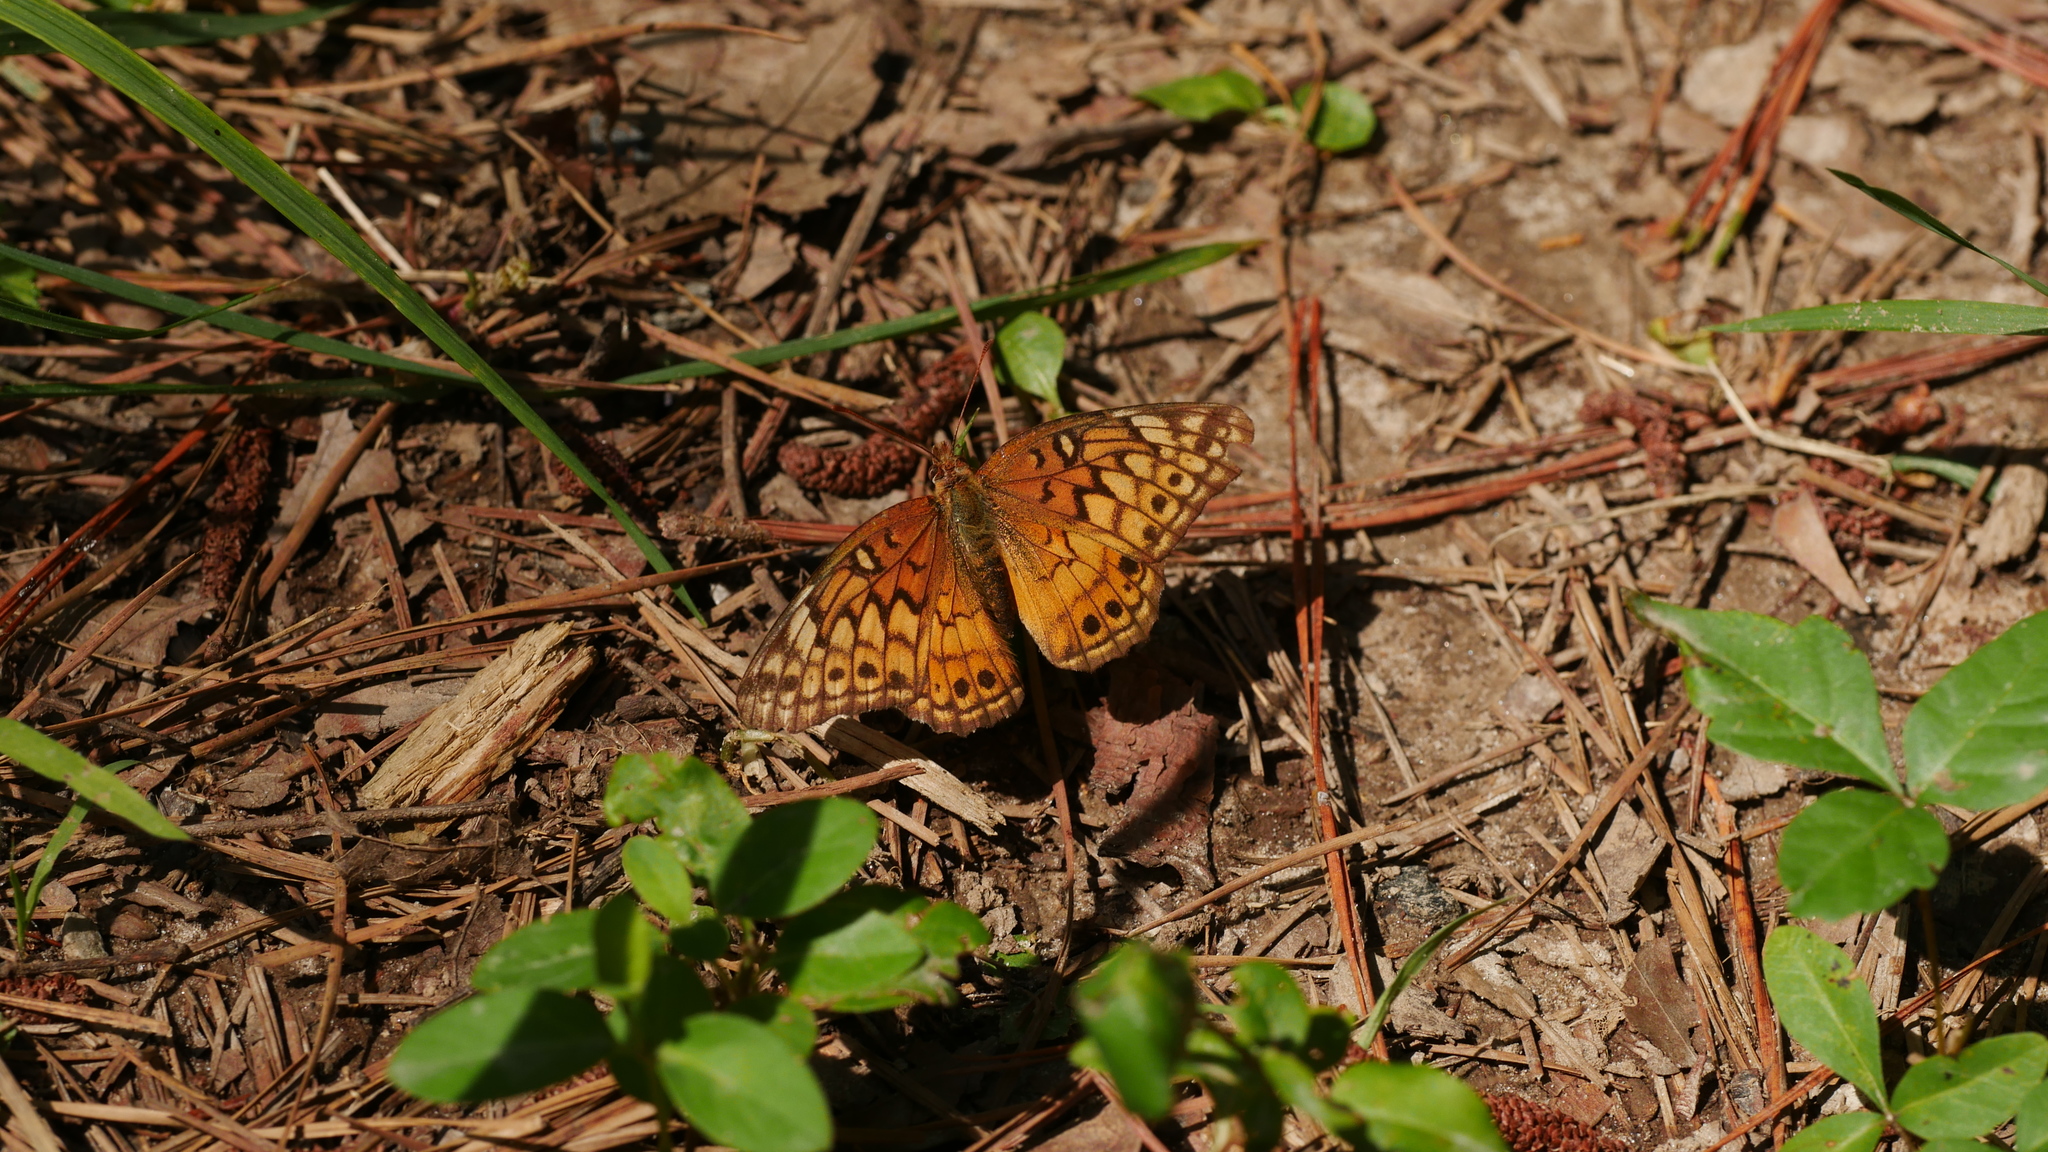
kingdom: Animalia
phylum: Arthropoda
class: Insecta
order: Lepidoptera
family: Nymphalidae
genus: Euptoieta
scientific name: Euptoieta claudia
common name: Variegated fritillary
